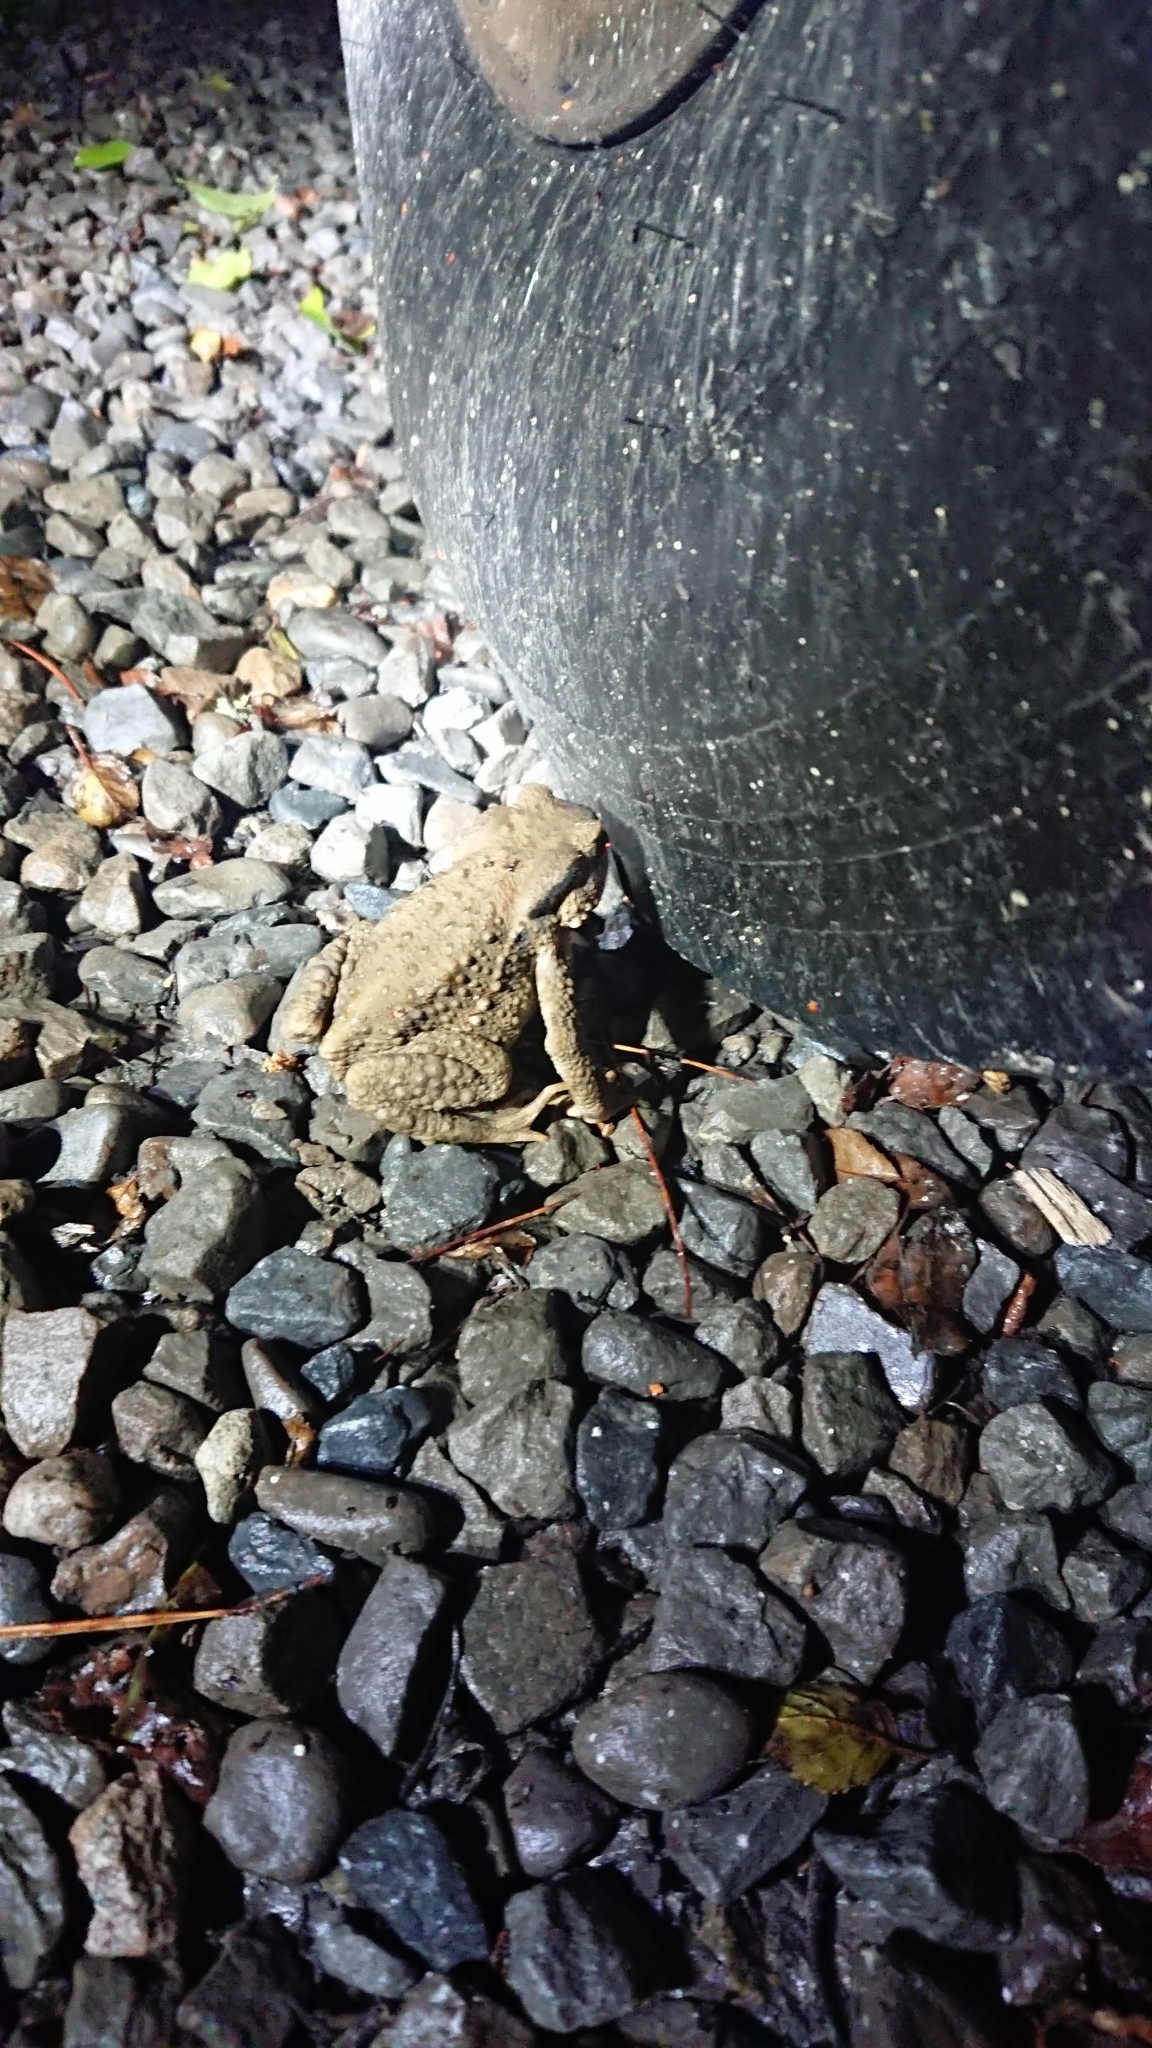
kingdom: Animalia
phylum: Chordata
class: Amphibia
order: Anura
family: Bufonidae
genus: Bufo
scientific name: Bufo bankorensis
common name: Bankor toad
